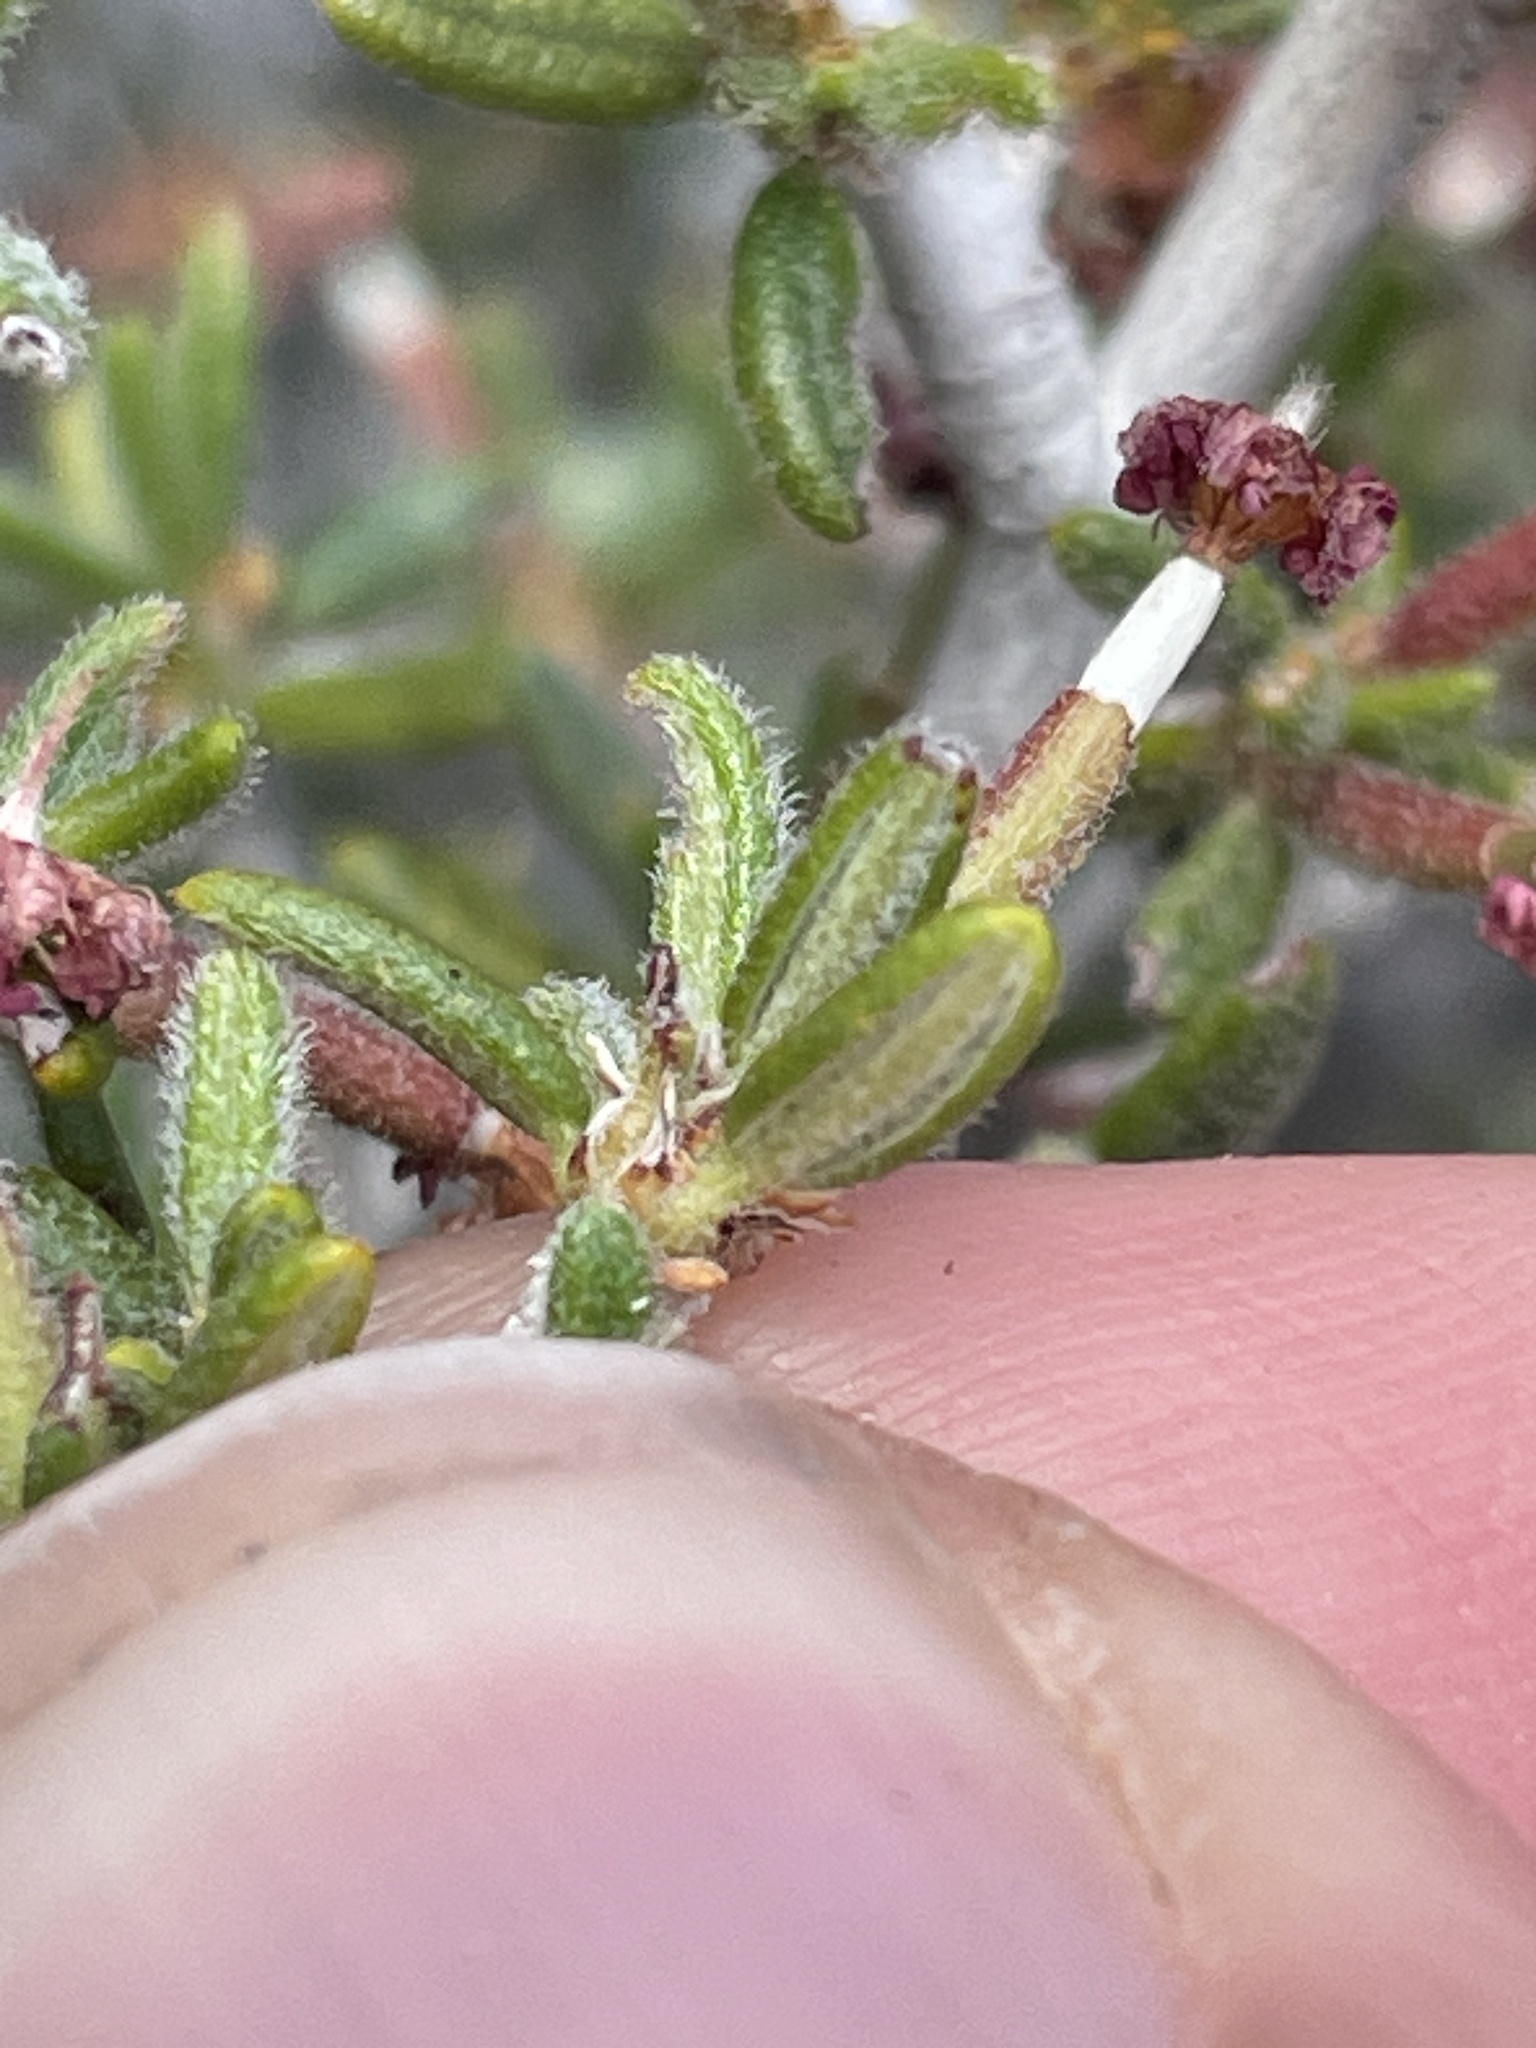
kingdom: Plantae
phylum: Tracheophyta
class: Magnoliopsida
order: Rosales
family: Rosaceae
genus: Cercocarpus
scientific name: Cercocarpus intricatus
